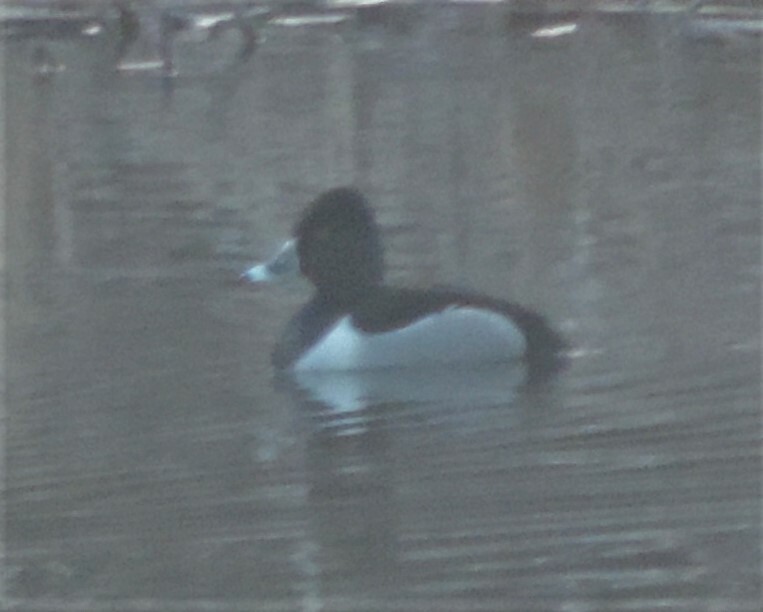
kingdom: Animalia
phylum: Chordata
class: Aves
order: Anseriformes
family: Anatidae
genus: Aythya
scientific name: Aythya collaris
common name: Ring-necked duck
